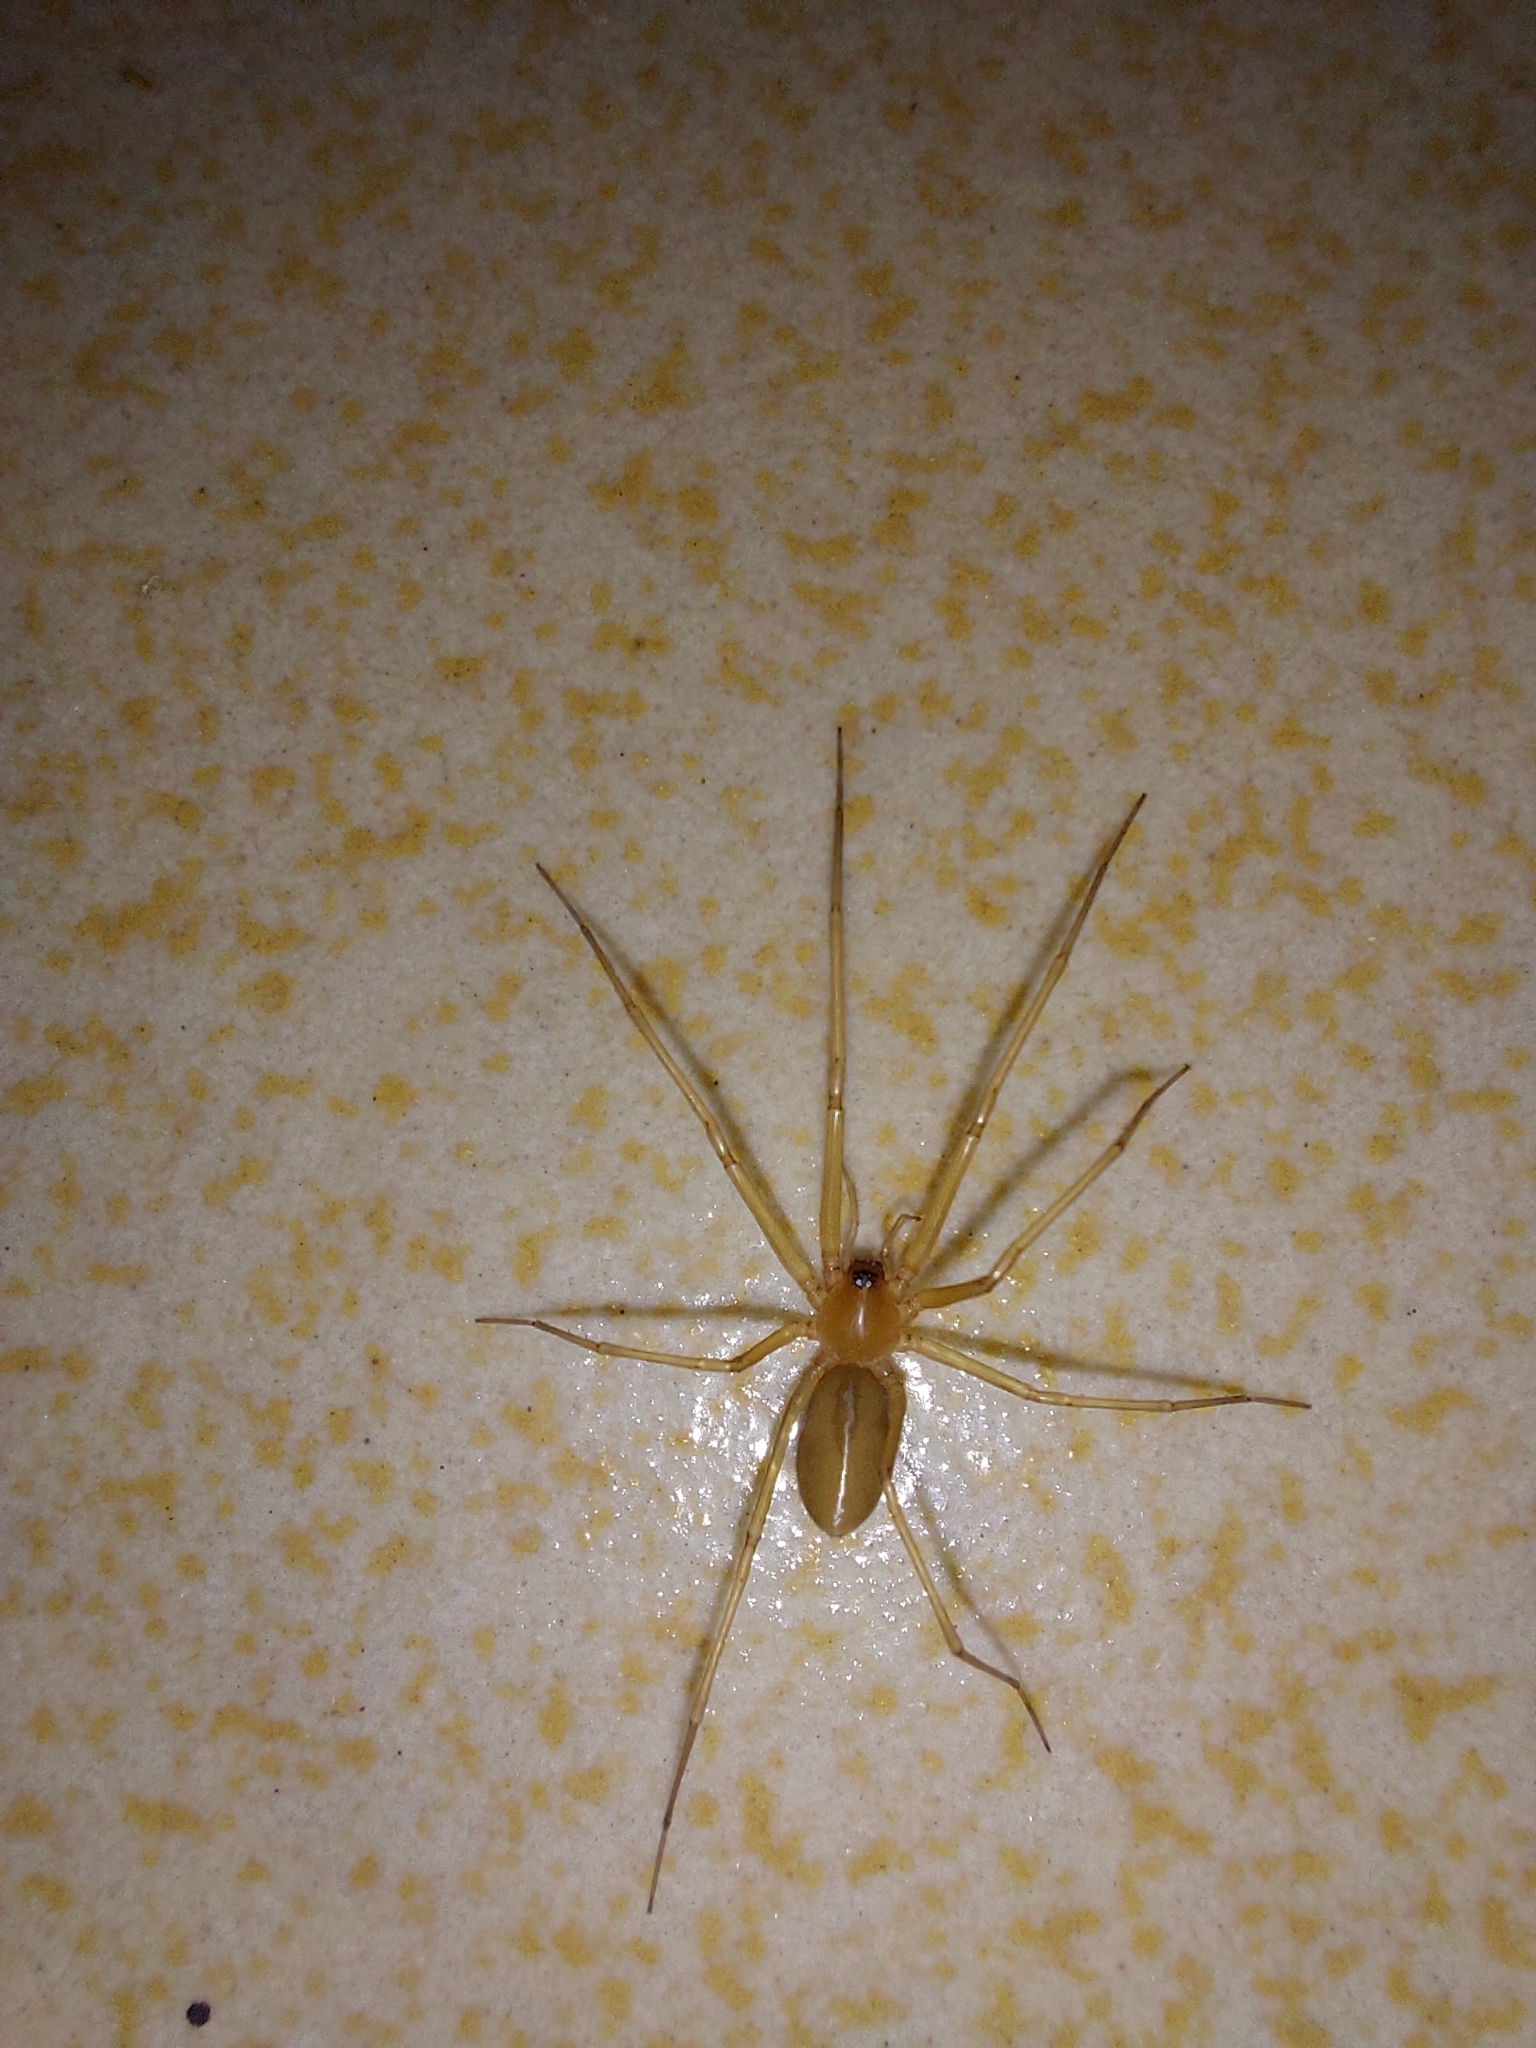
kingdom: Animalia
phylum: Arthropoda
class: Arachnida
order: Araneae
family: Cithaeronidae
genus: Cithaeron
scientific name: Cithaeron praedonius
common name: Synanthropic spider
